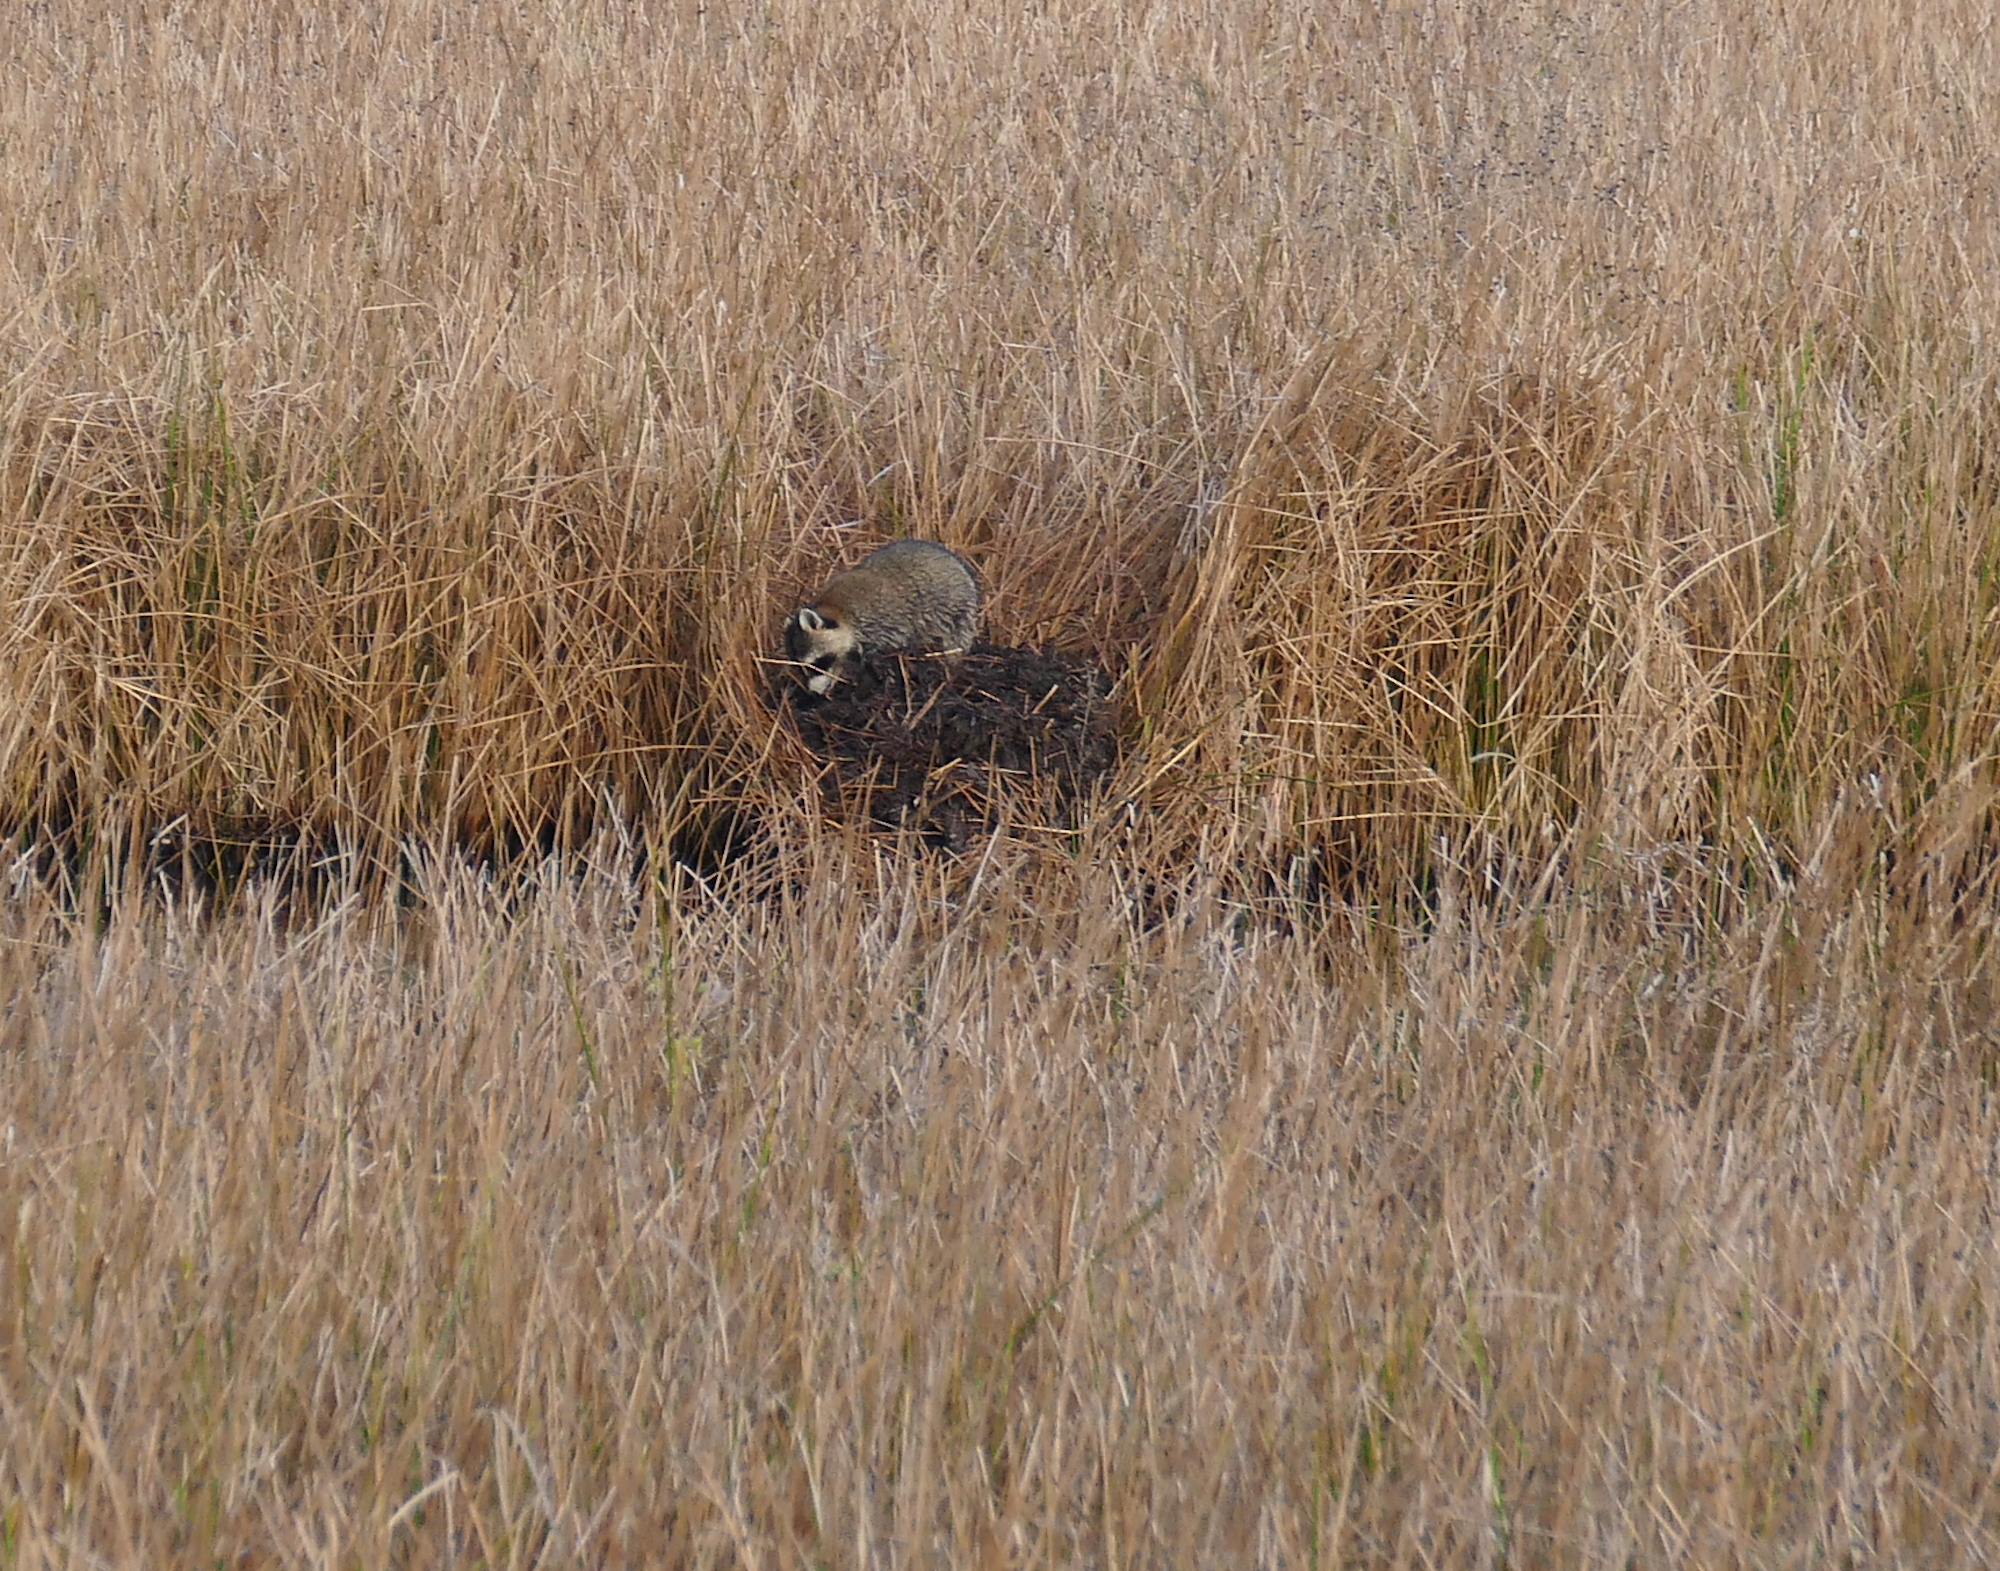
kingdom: Animalia
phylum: Chordata
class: Mammalia
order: Carnivora
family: Procyonidae
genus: Procyon
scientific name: Procyon lotor
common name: Raccoon
